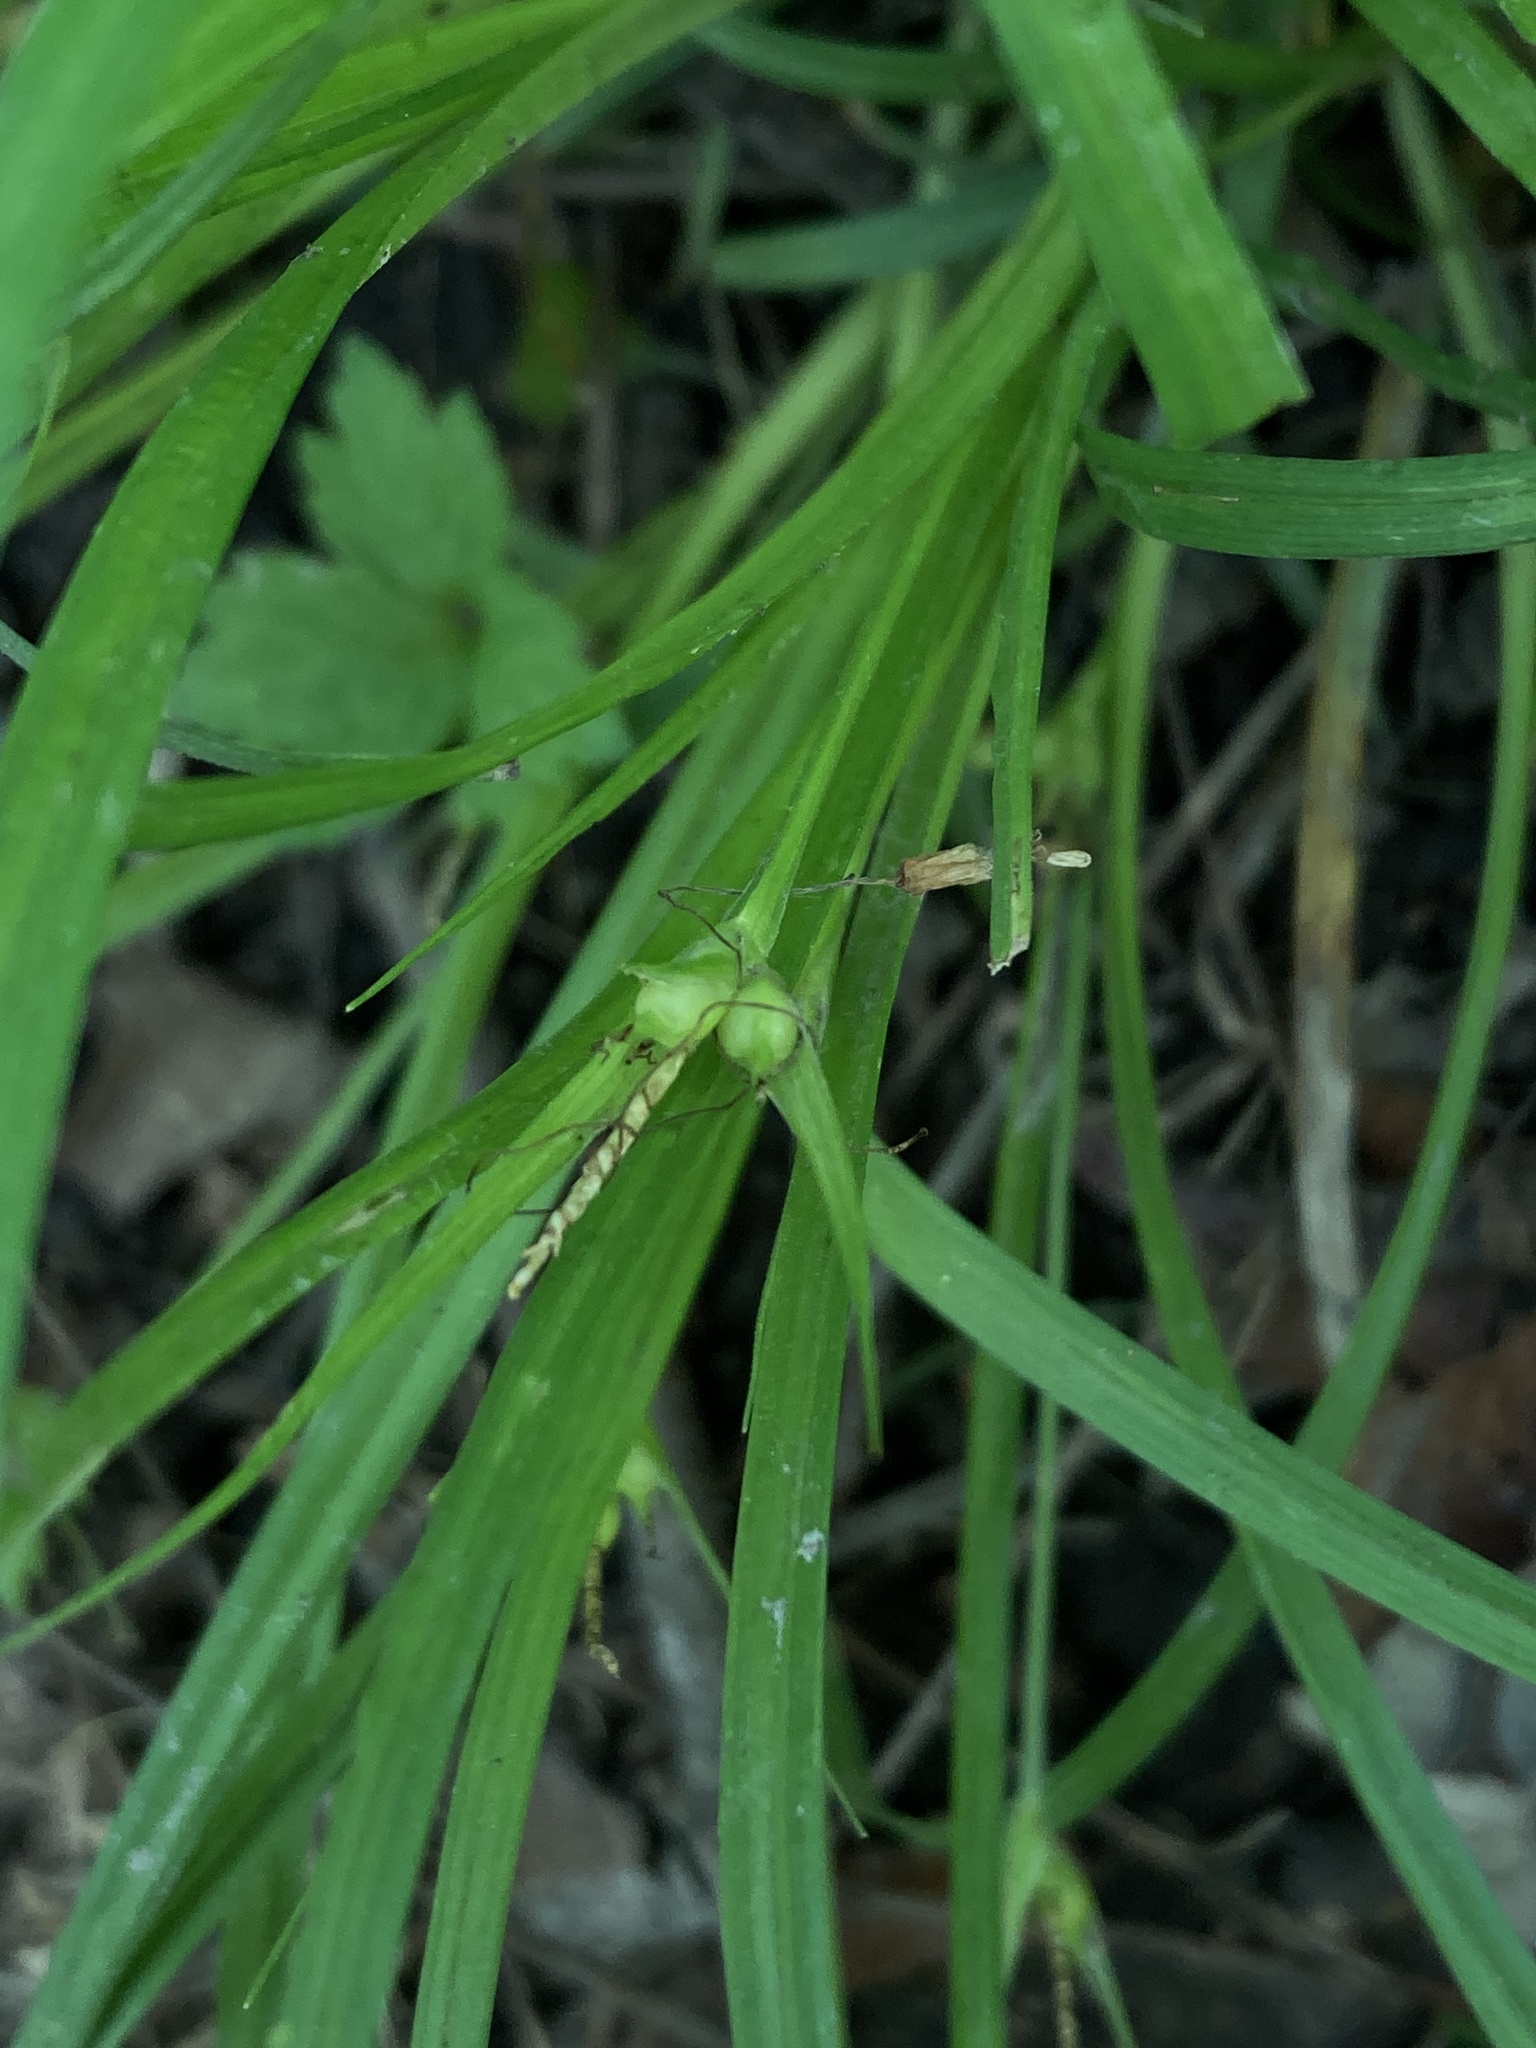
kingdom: Plantae
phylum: Tracheophyta
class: Liliopsida
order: Poales
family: Cyperaceae
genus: Carex
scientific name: Carex jamesii
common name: Grass sedge
